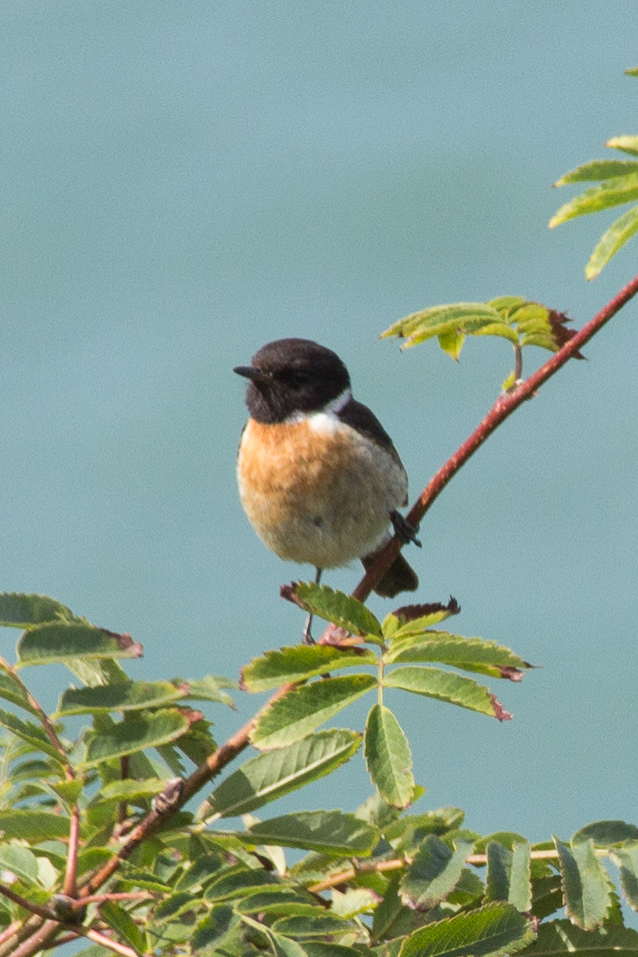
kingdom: Animalia
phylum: Chordata
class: Aves
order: Passeriformes
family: Muscicapidae
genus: Saxicola
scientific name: Saxicola rubicola
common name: European stonechat
